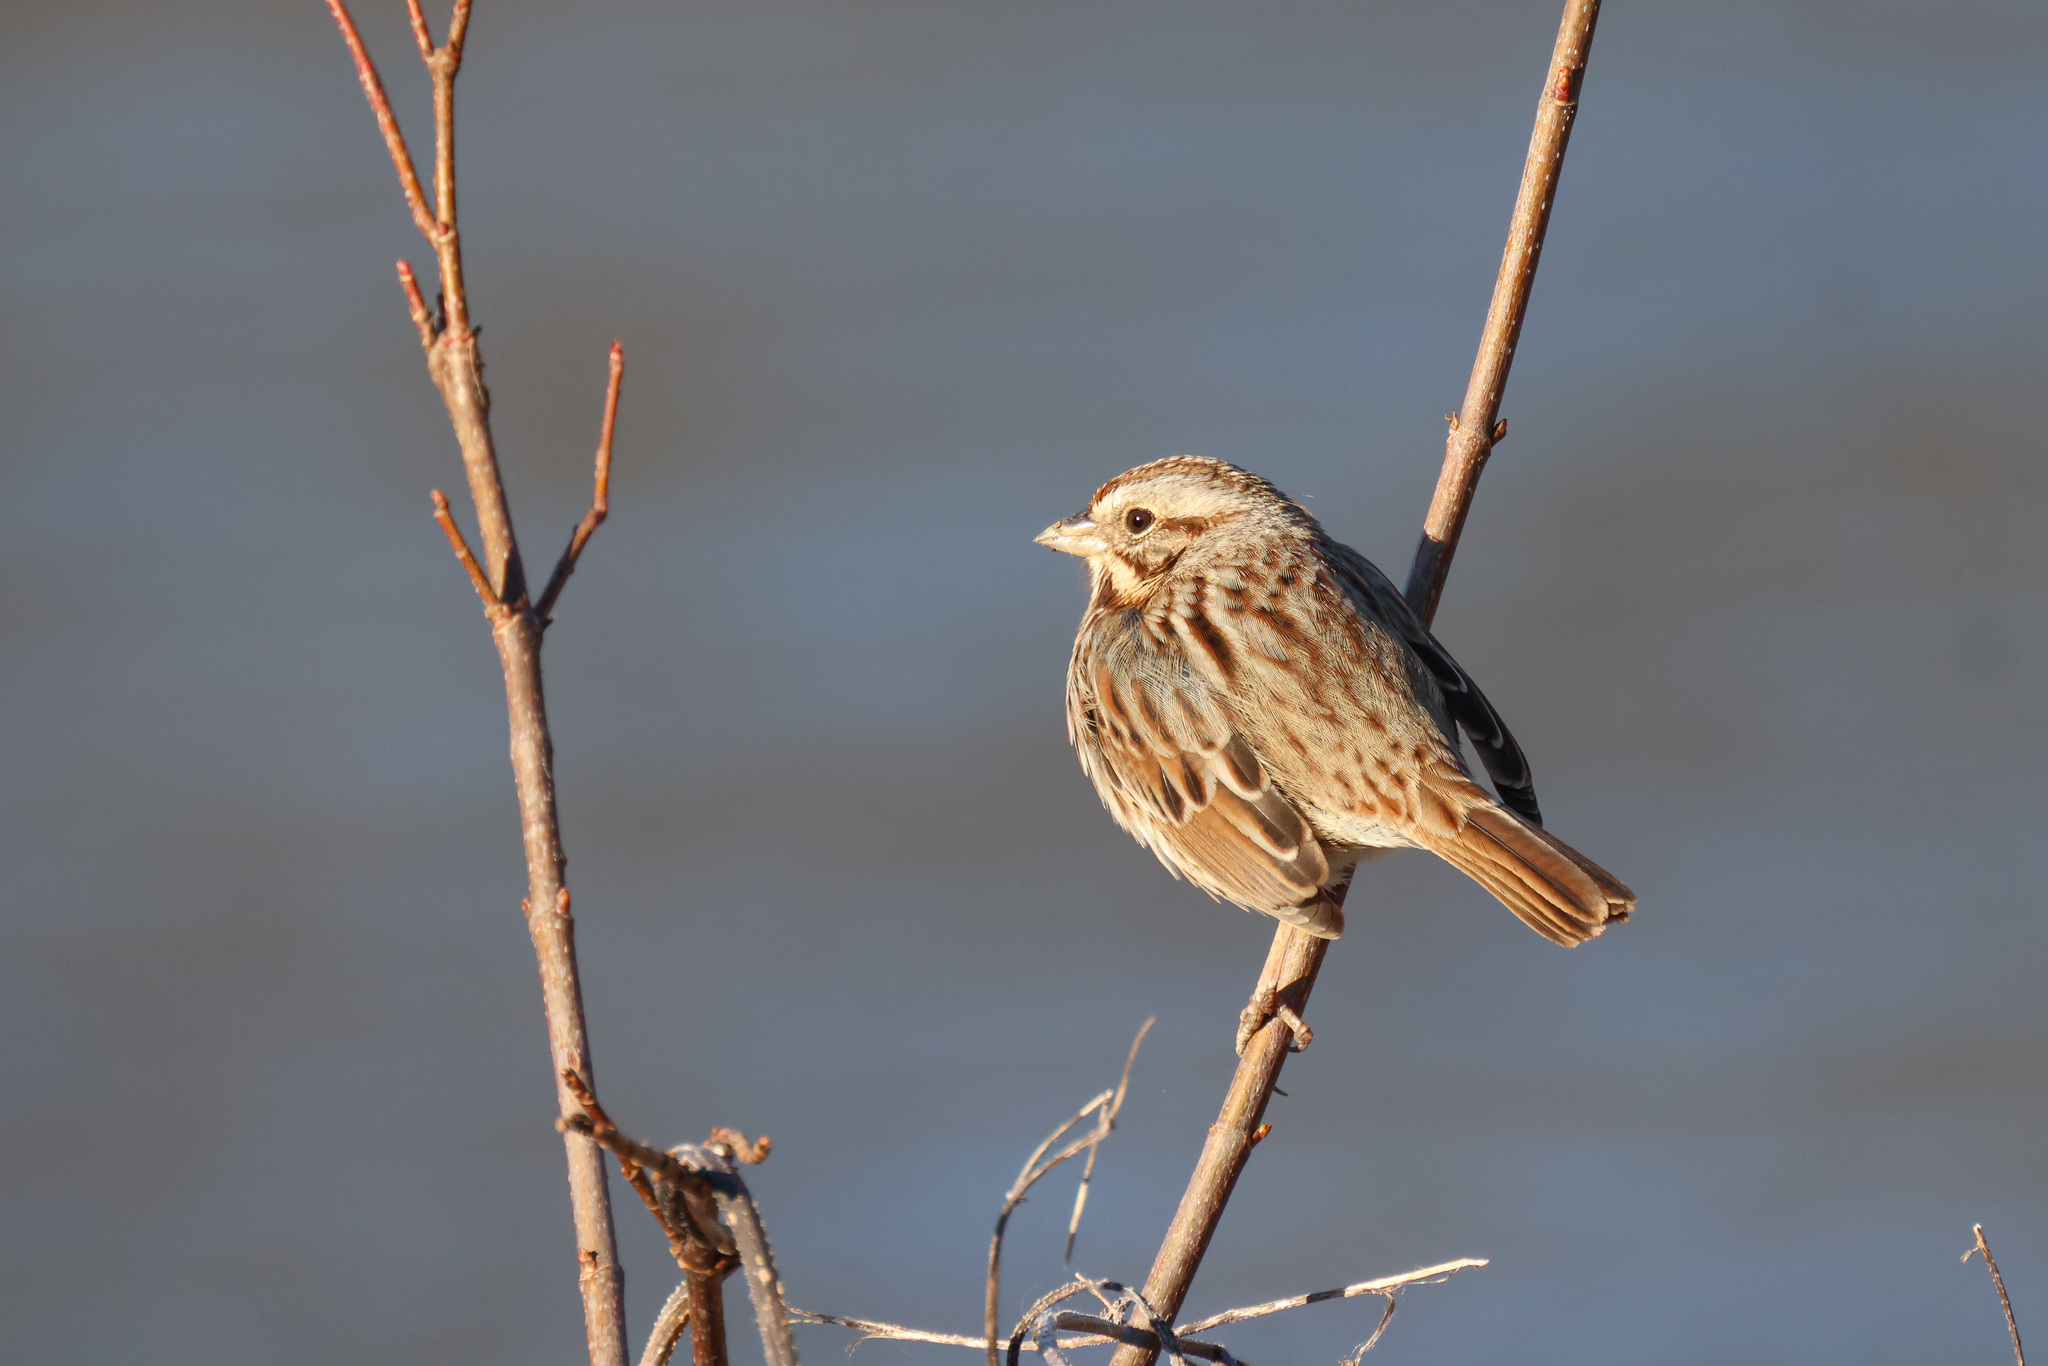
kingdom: Animalia
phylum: Chordata
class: Aves
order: Passeriformes
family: Passerellidae
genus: Melospiza
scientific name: Melospiza melodia
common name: Song sparrow
